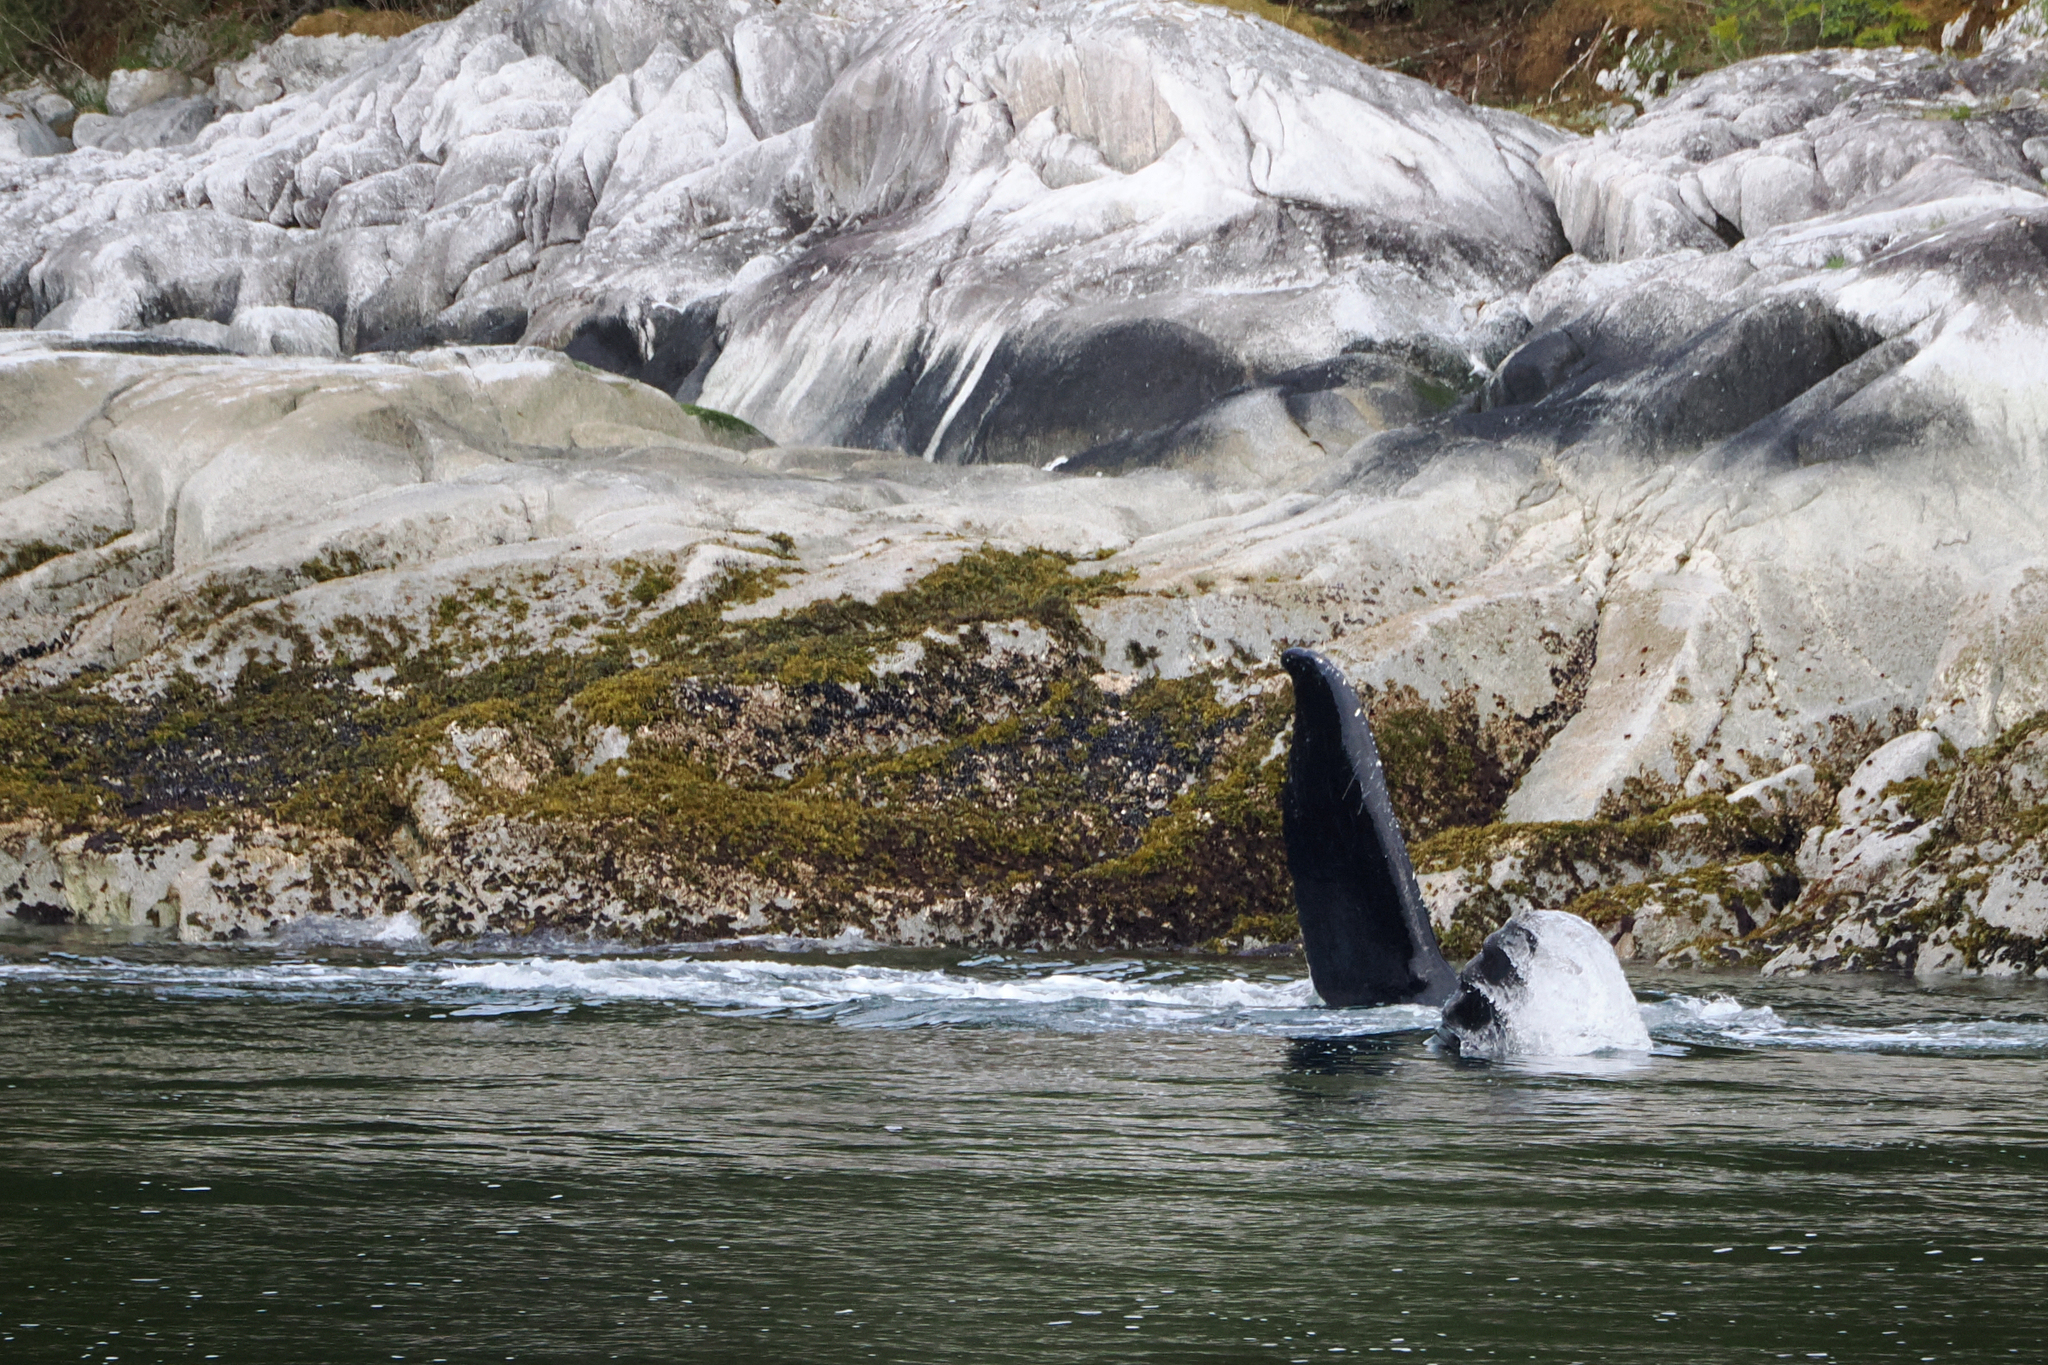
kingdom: Animalia
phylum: Chordata
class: Mammalia
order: Cetacea
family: Balaenopteridae
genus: Megaptera
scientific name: Megaptera novaeangliae
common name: Humpback whale
